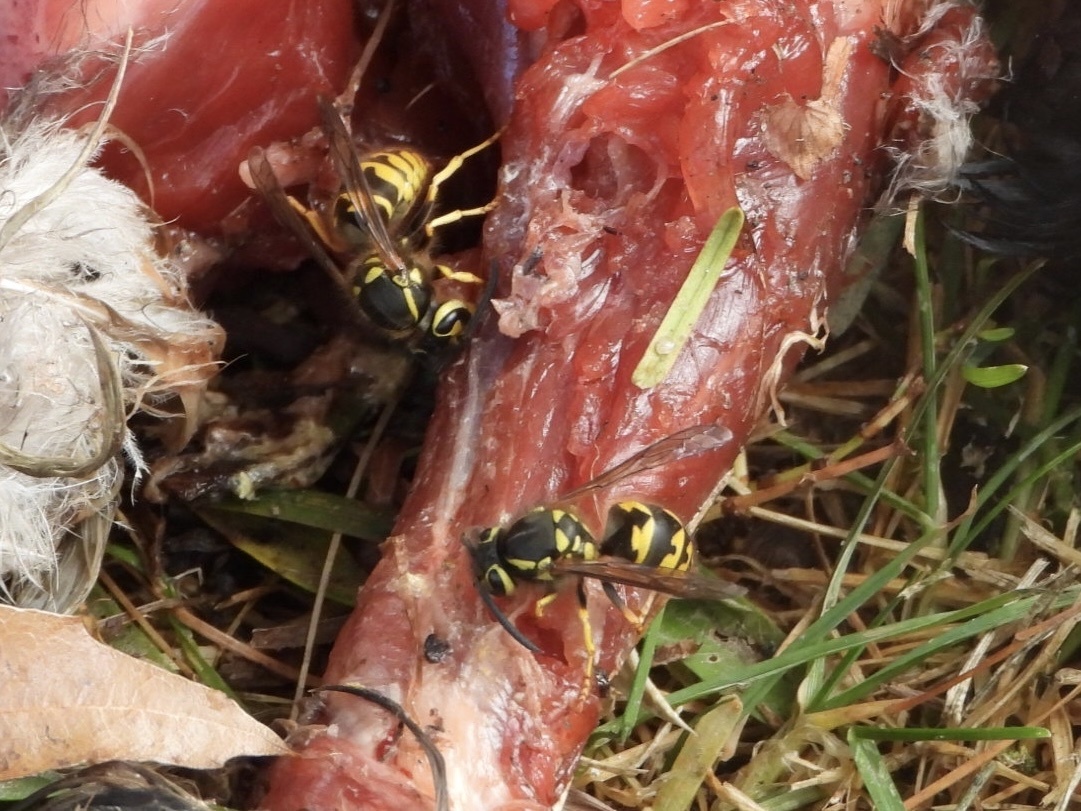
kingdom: Animalia
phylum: Arthropoda
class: Insecta
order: Hymenoptera
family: Vespidae
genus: Vespula
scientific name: Vespula pensylvanica
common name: Western yellowjacket
